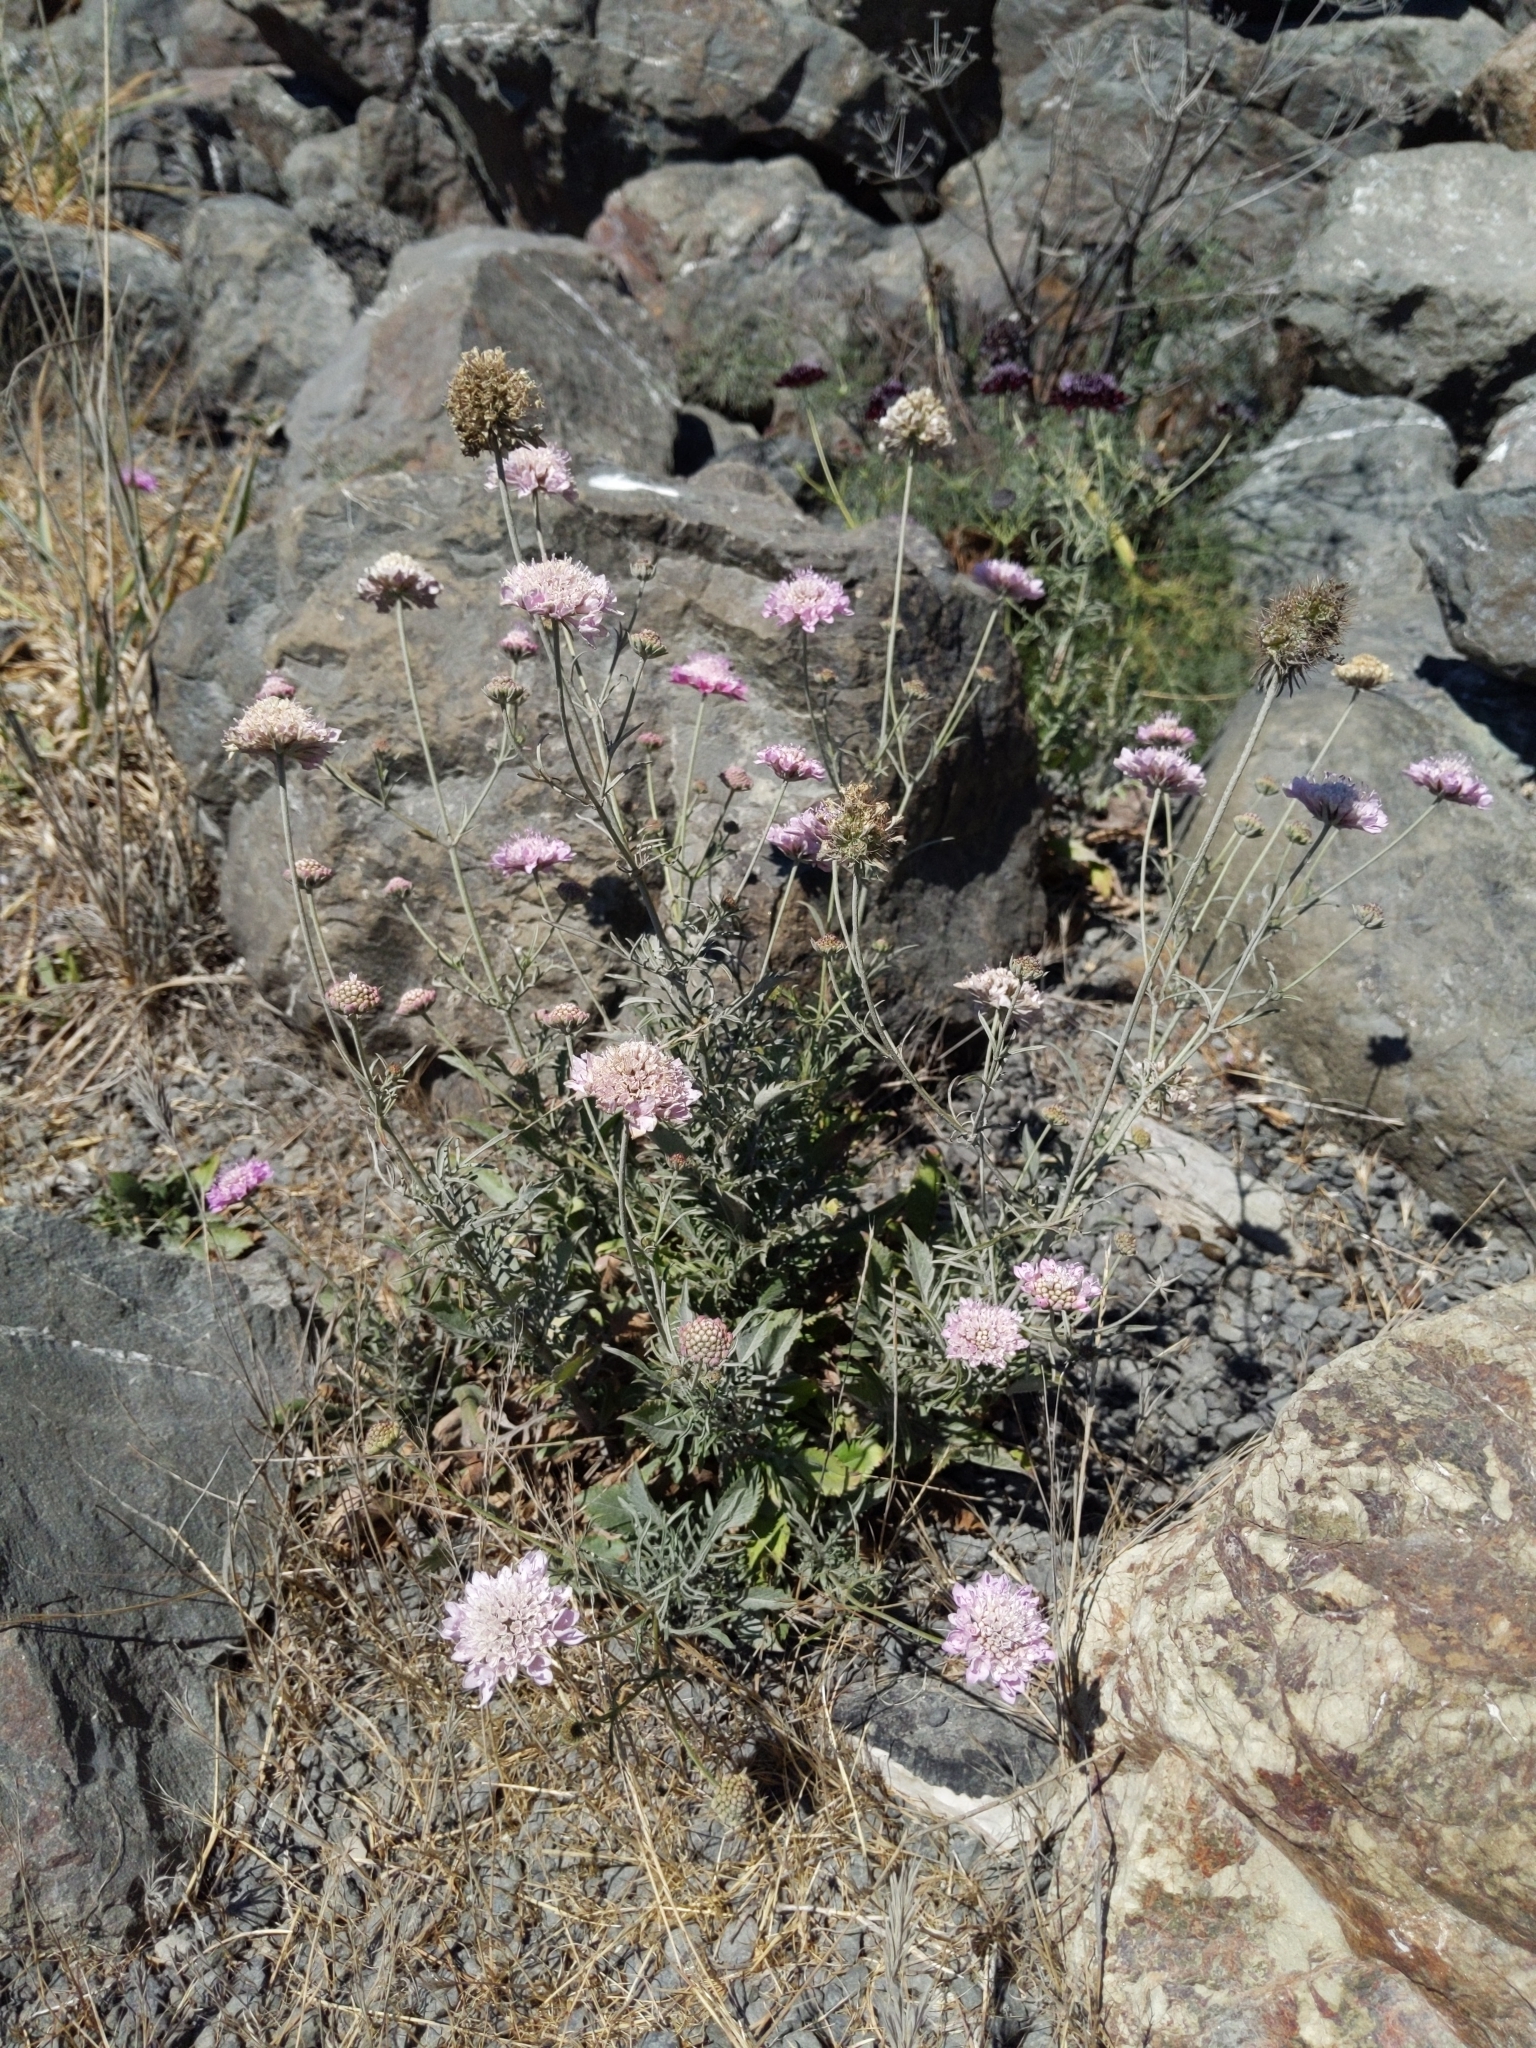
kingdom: Plantae
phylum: Tracheophyta
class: Magnoliopsida
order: Dipsacales
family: Caprifoliaceae
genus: Sixalix
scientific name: Sixalix atropurpurea
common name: Sweet scabious
